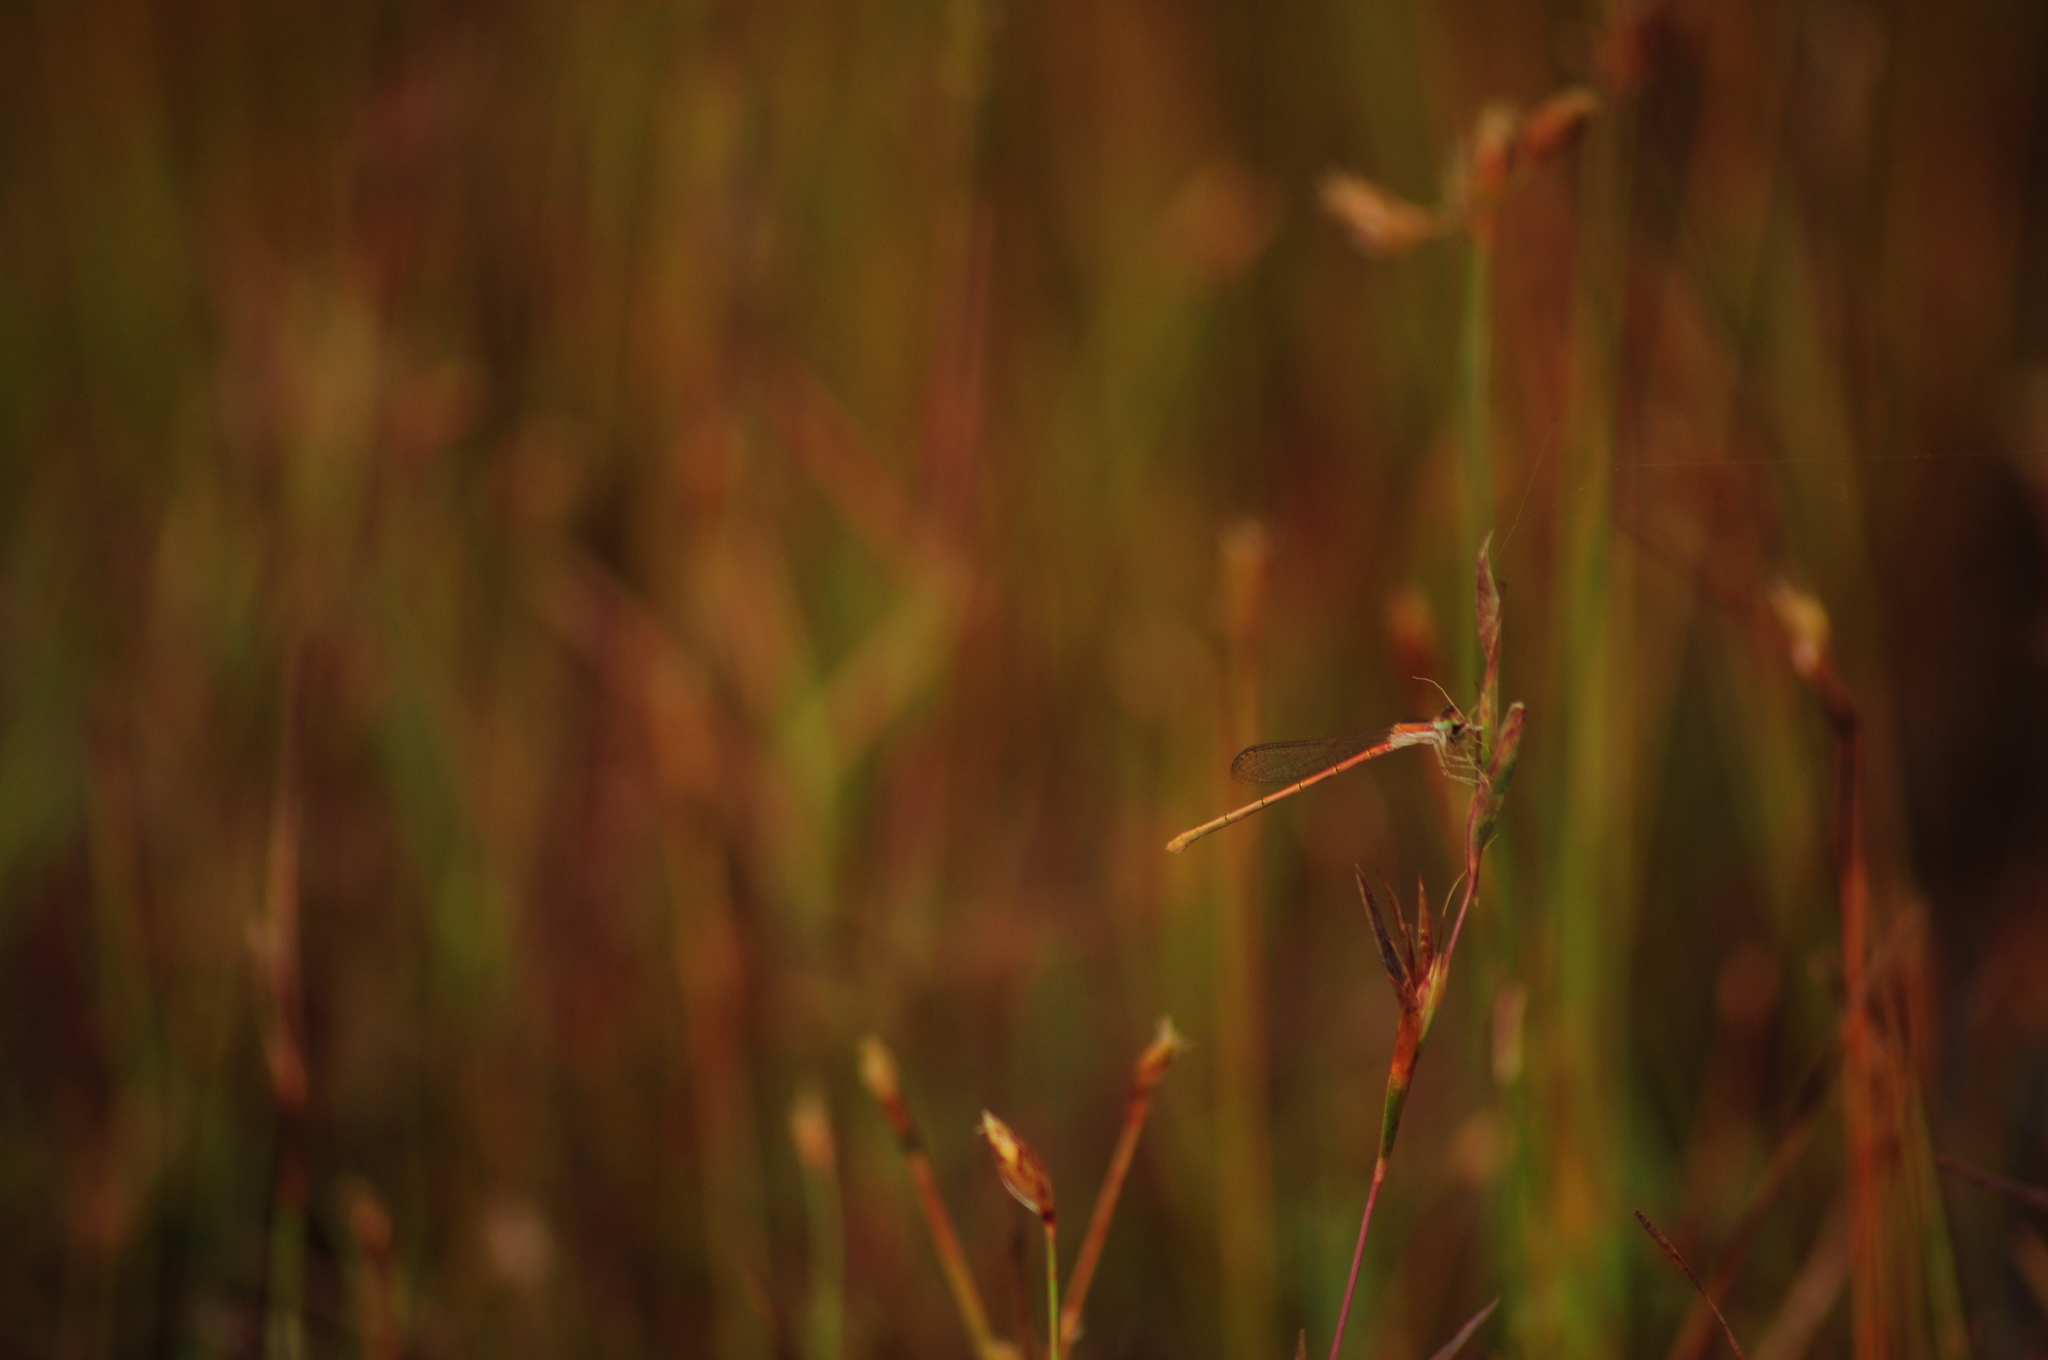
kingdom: Animalia
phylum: Arthropoda
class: Insecta
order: Odonata
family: Coenagrionidae
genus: Agriocnemis
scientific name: Agriocnemis pygmaea
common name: Pygmy wisp
